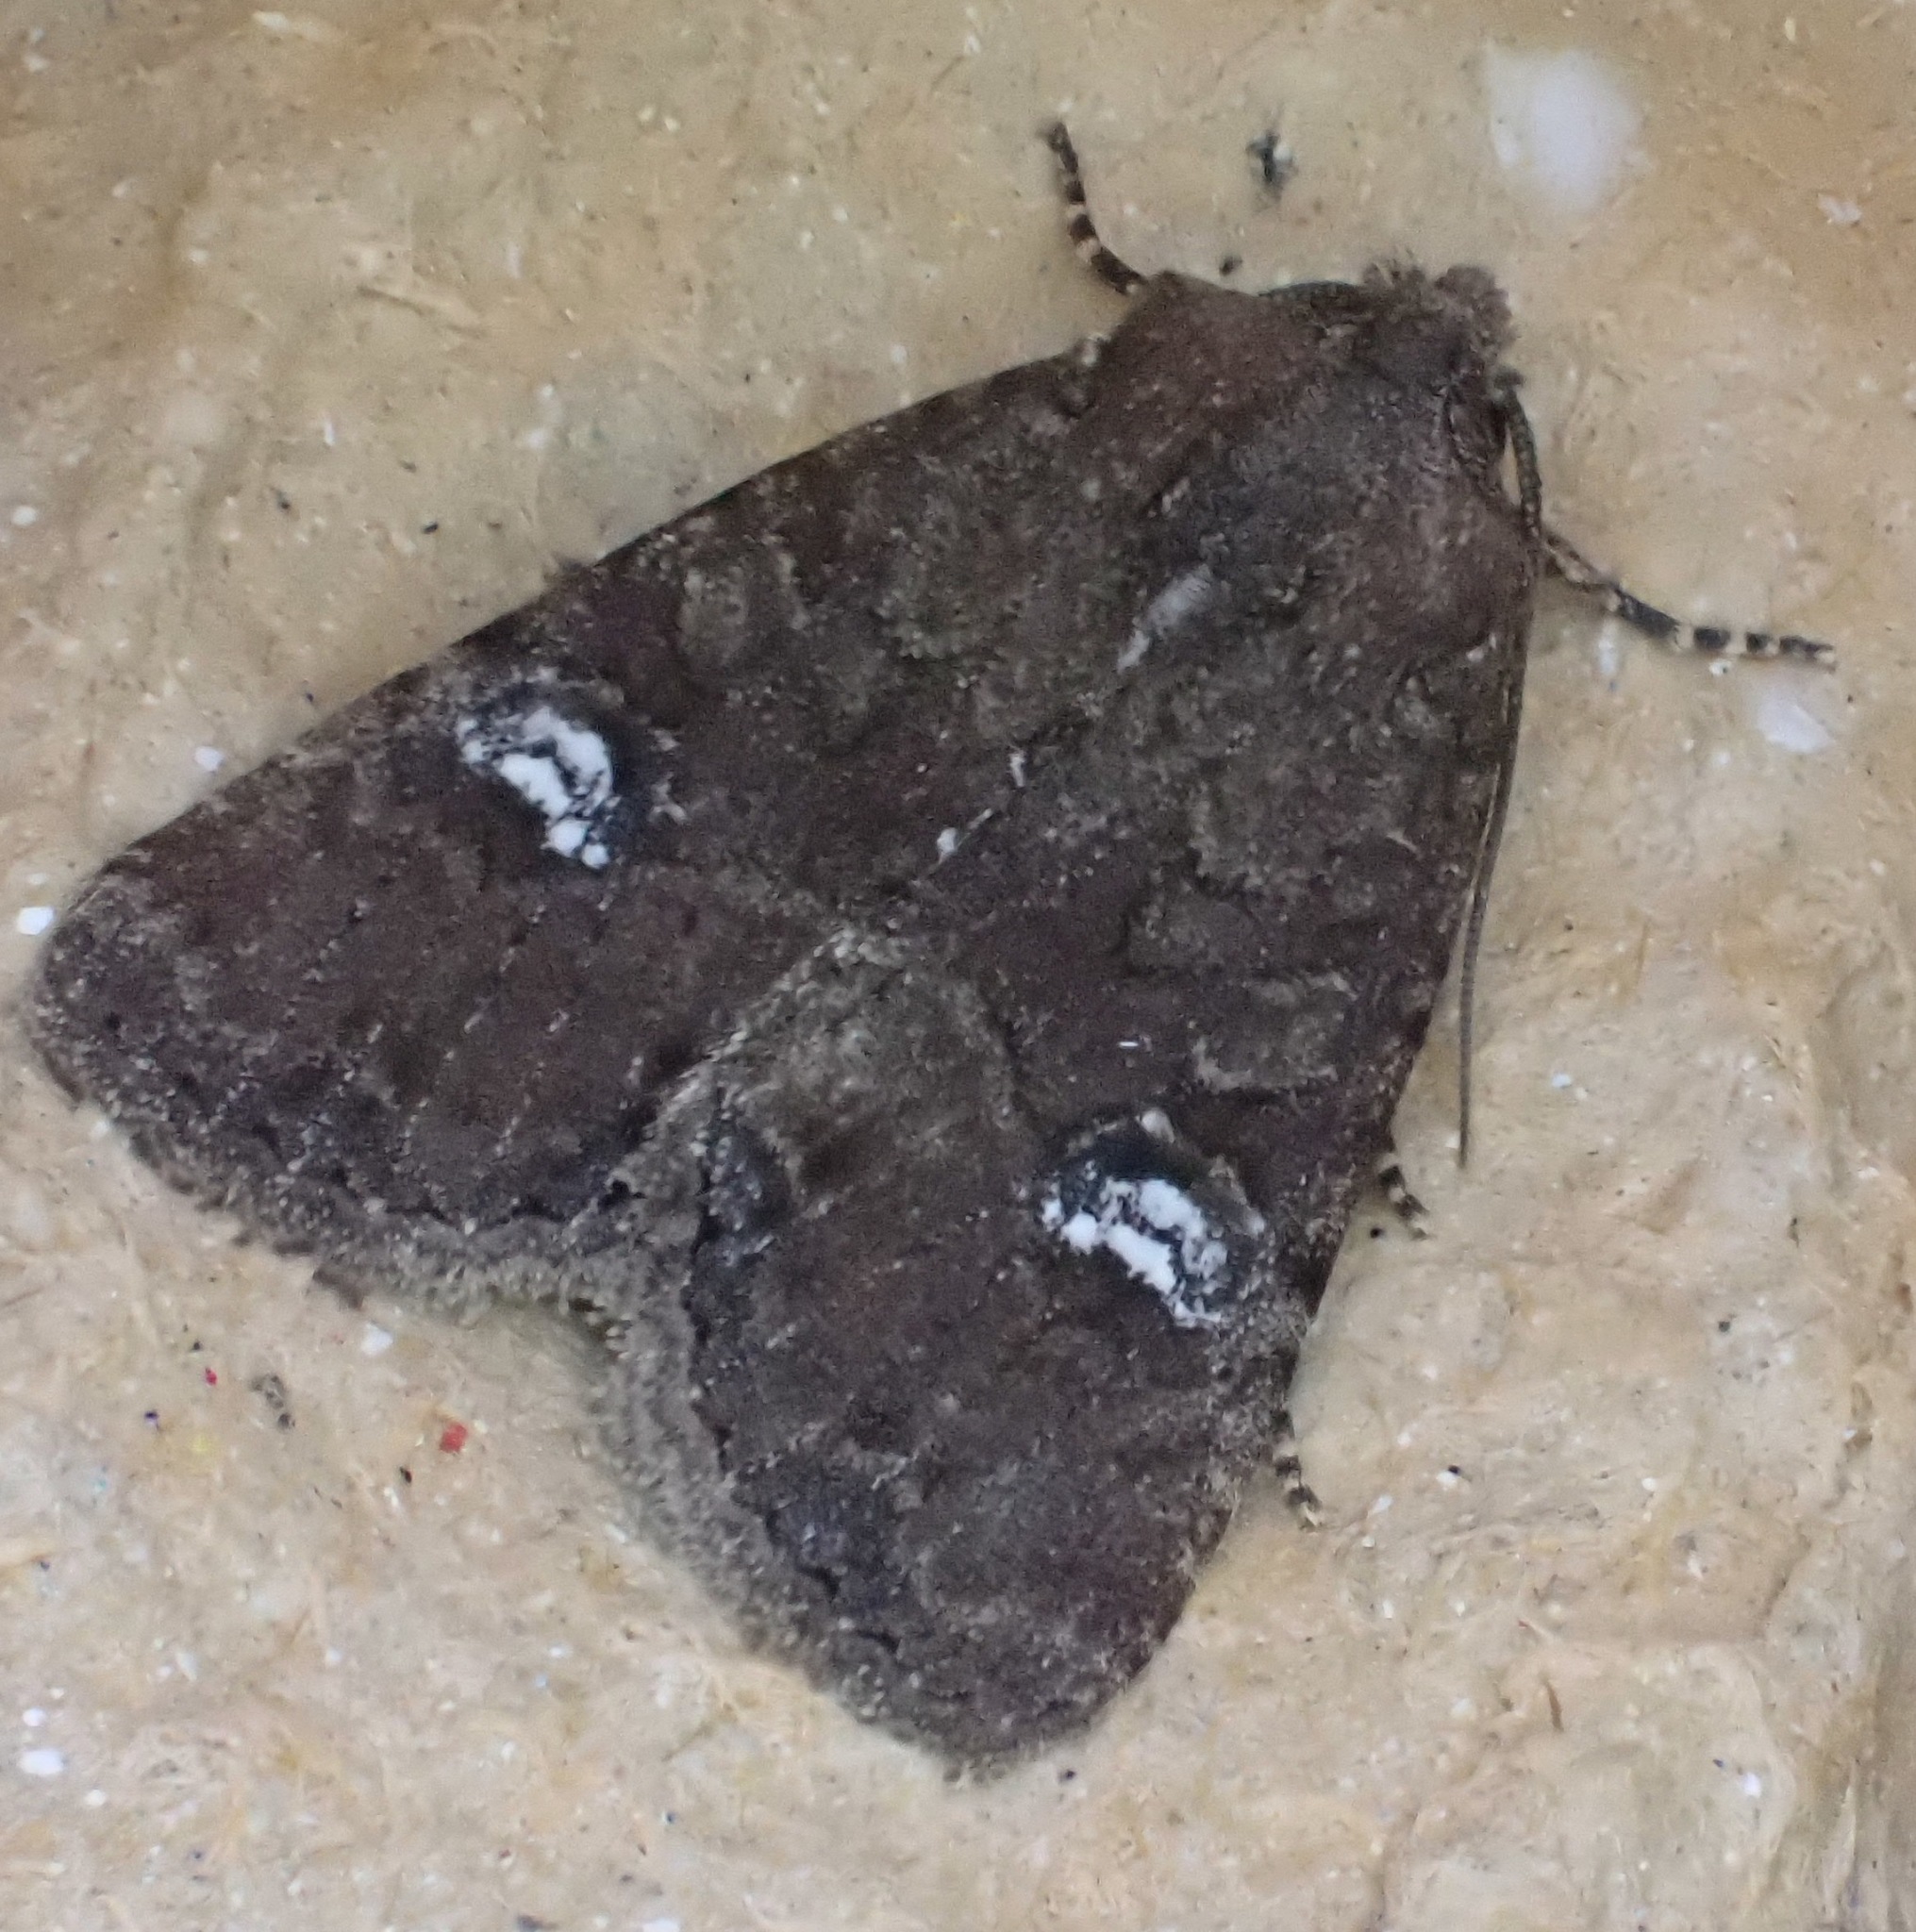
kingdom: Animalia
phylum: Arthropoda
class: Insecta
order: Lepidoptera
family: Noctuidae
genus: Melanchra
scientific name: Melanchra persicariae
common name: Dot moth
